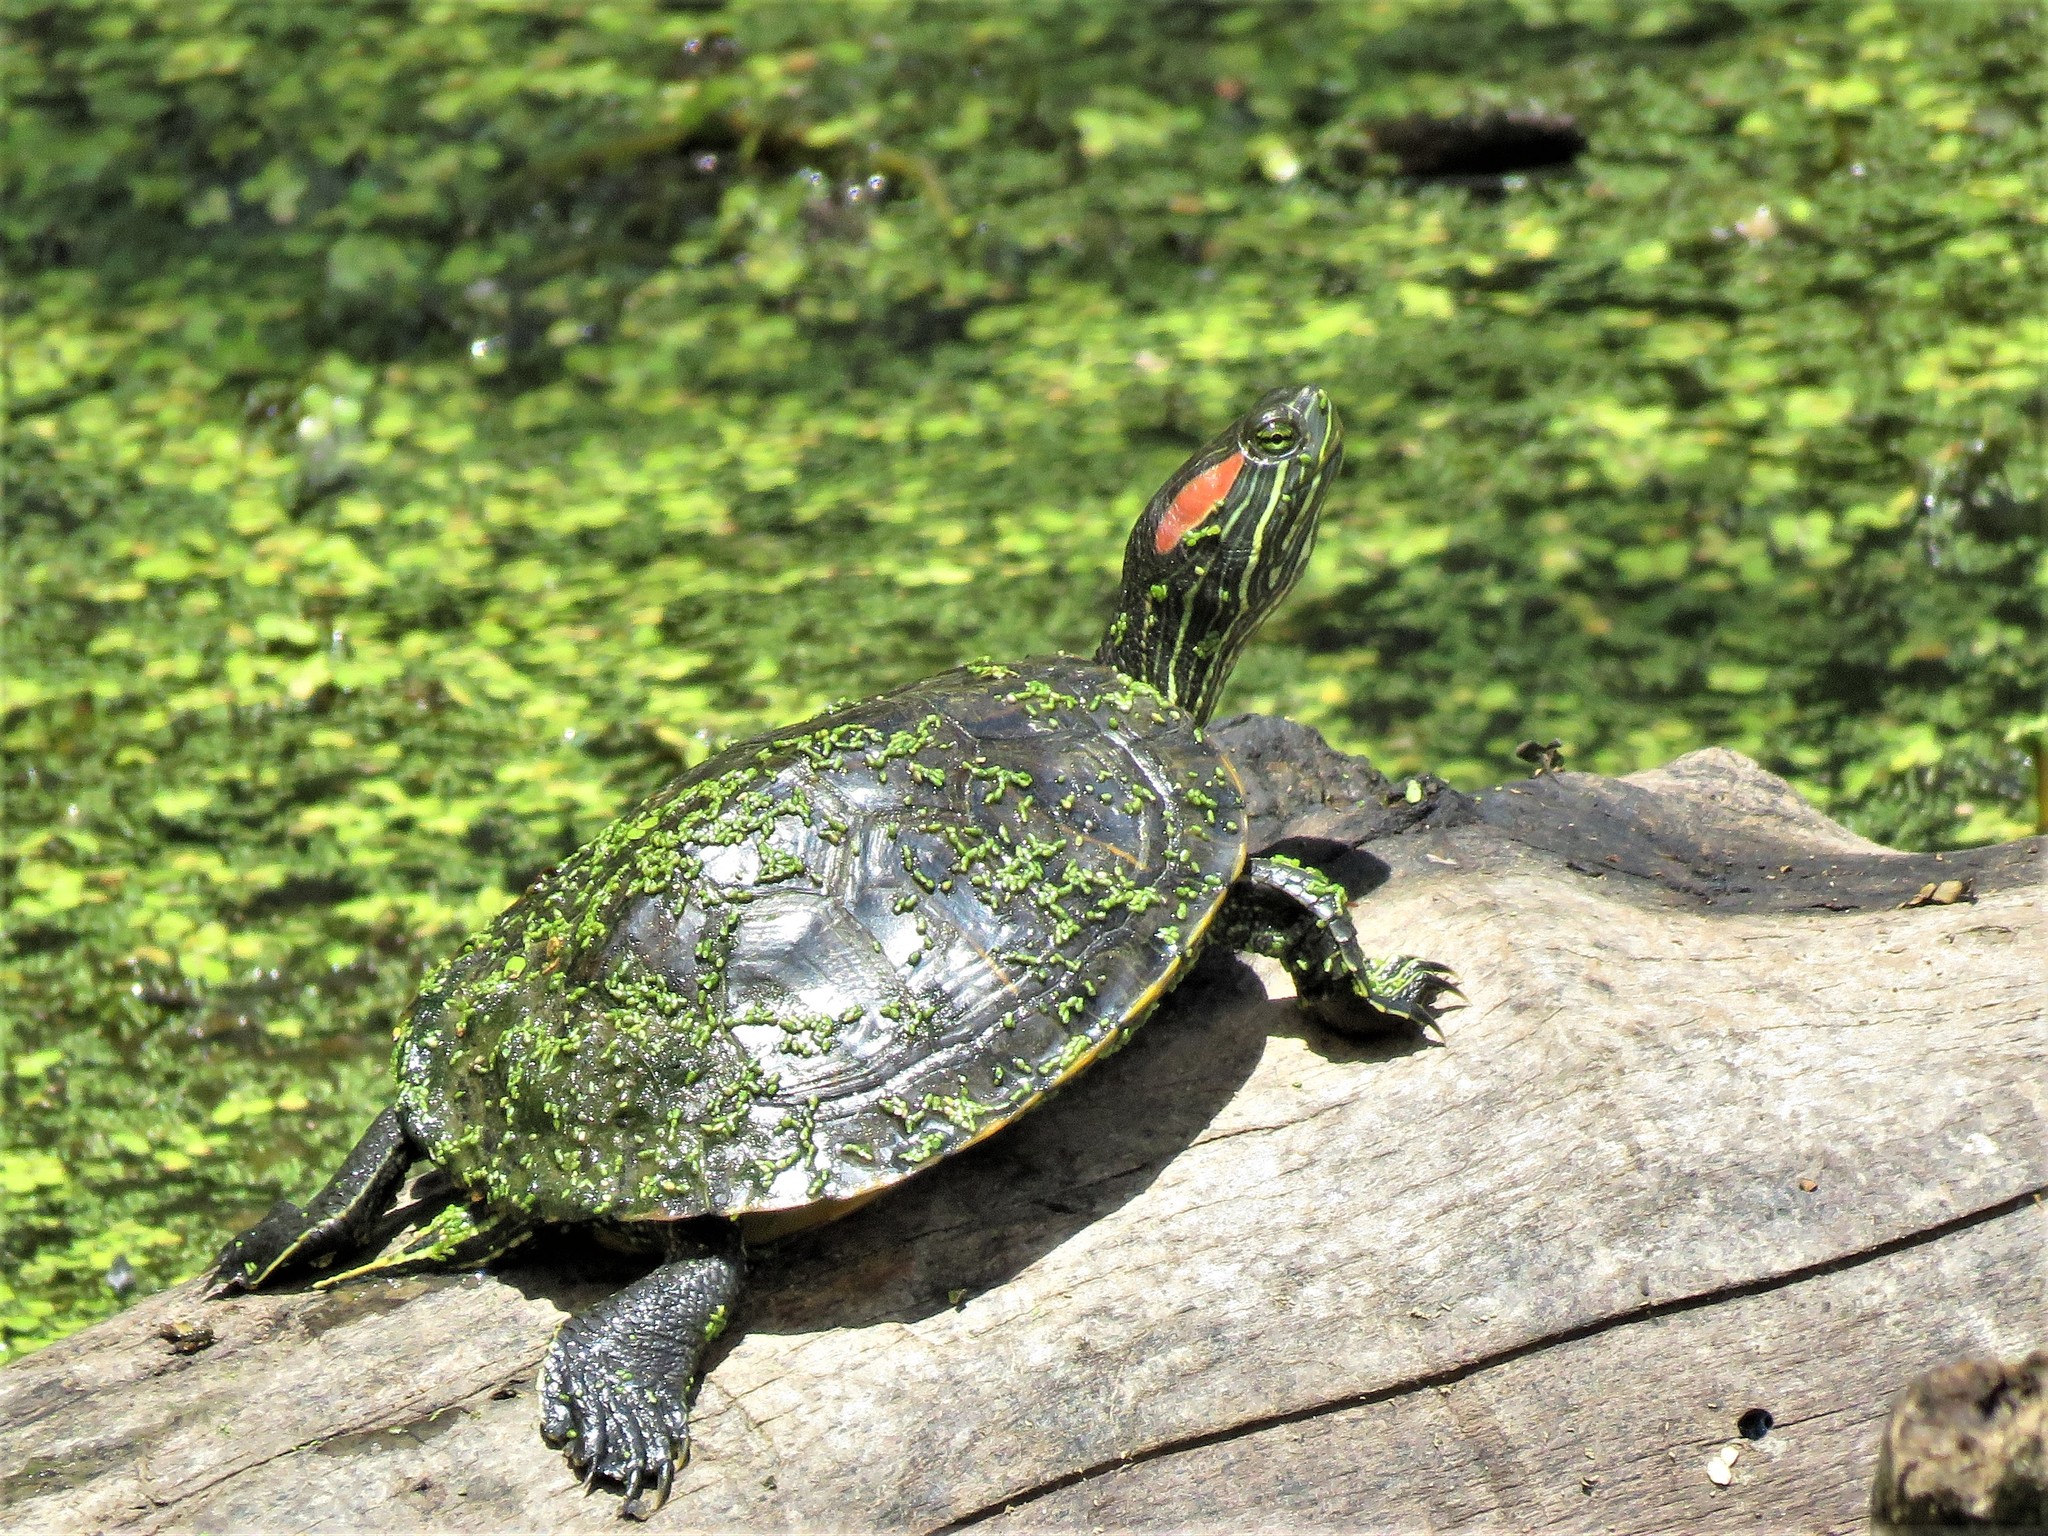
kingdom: Animalia
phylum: Chordata
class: Testudines
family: Emydidae
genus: Trachemys
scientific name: Trachemys scripta
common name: Slider
